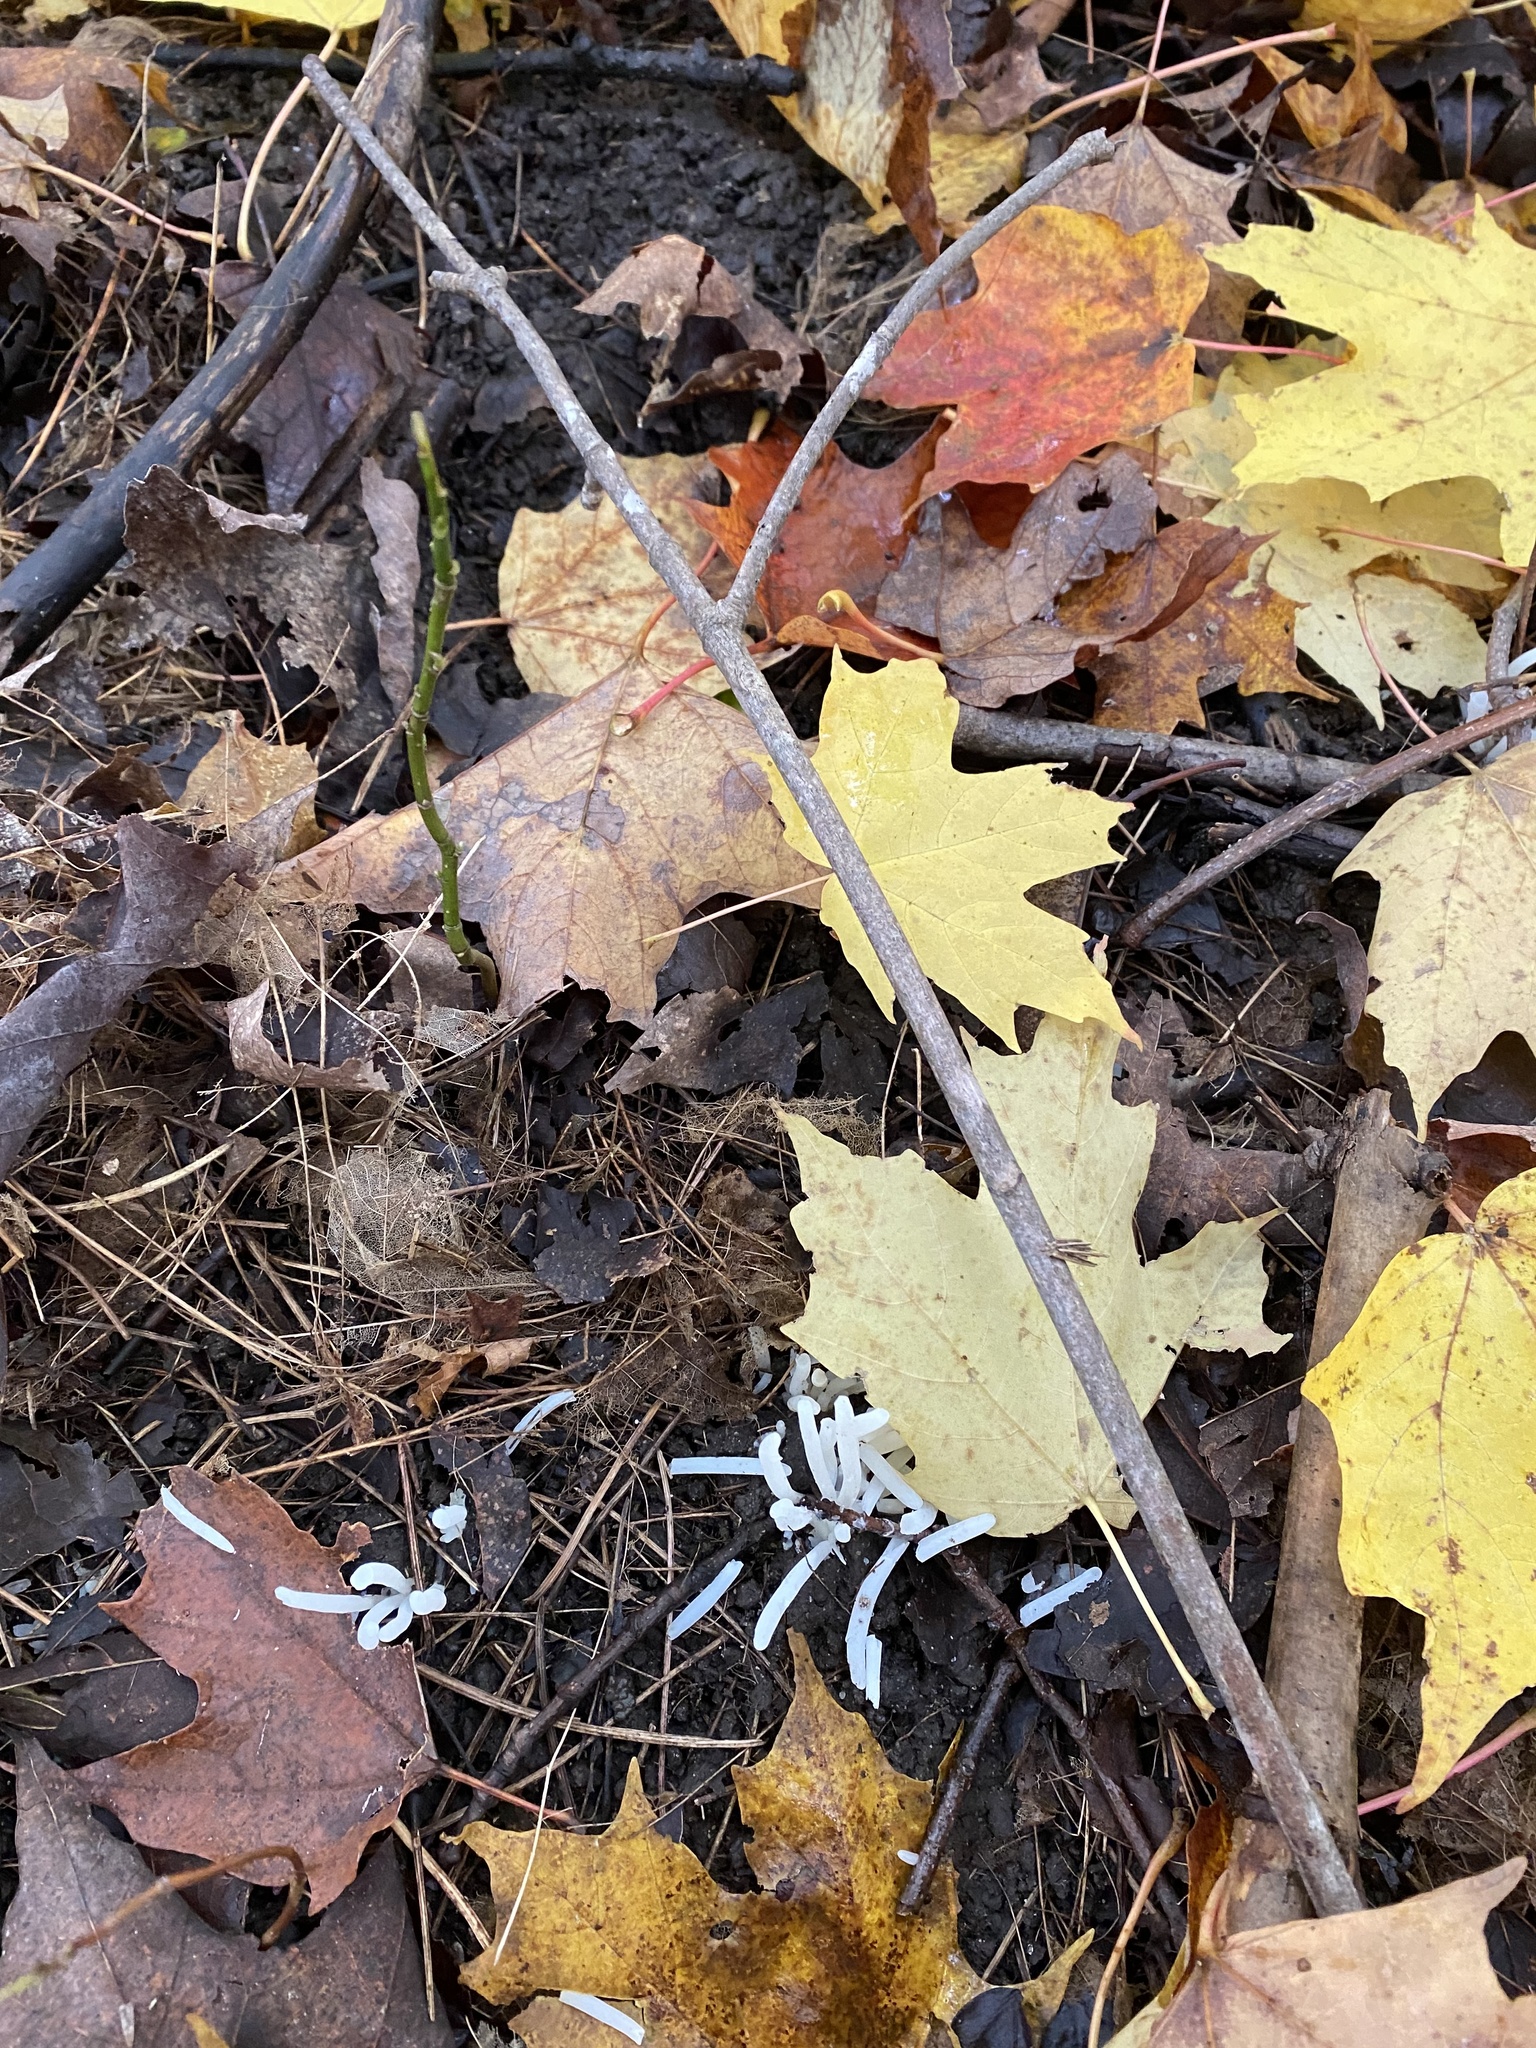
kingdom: Fungi
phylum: Basidiomycota
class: Agaricomycetes
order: Agaricales
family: Clavariaceae
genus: Clavaria
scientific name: Clavaria fragilis
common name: White spindles
